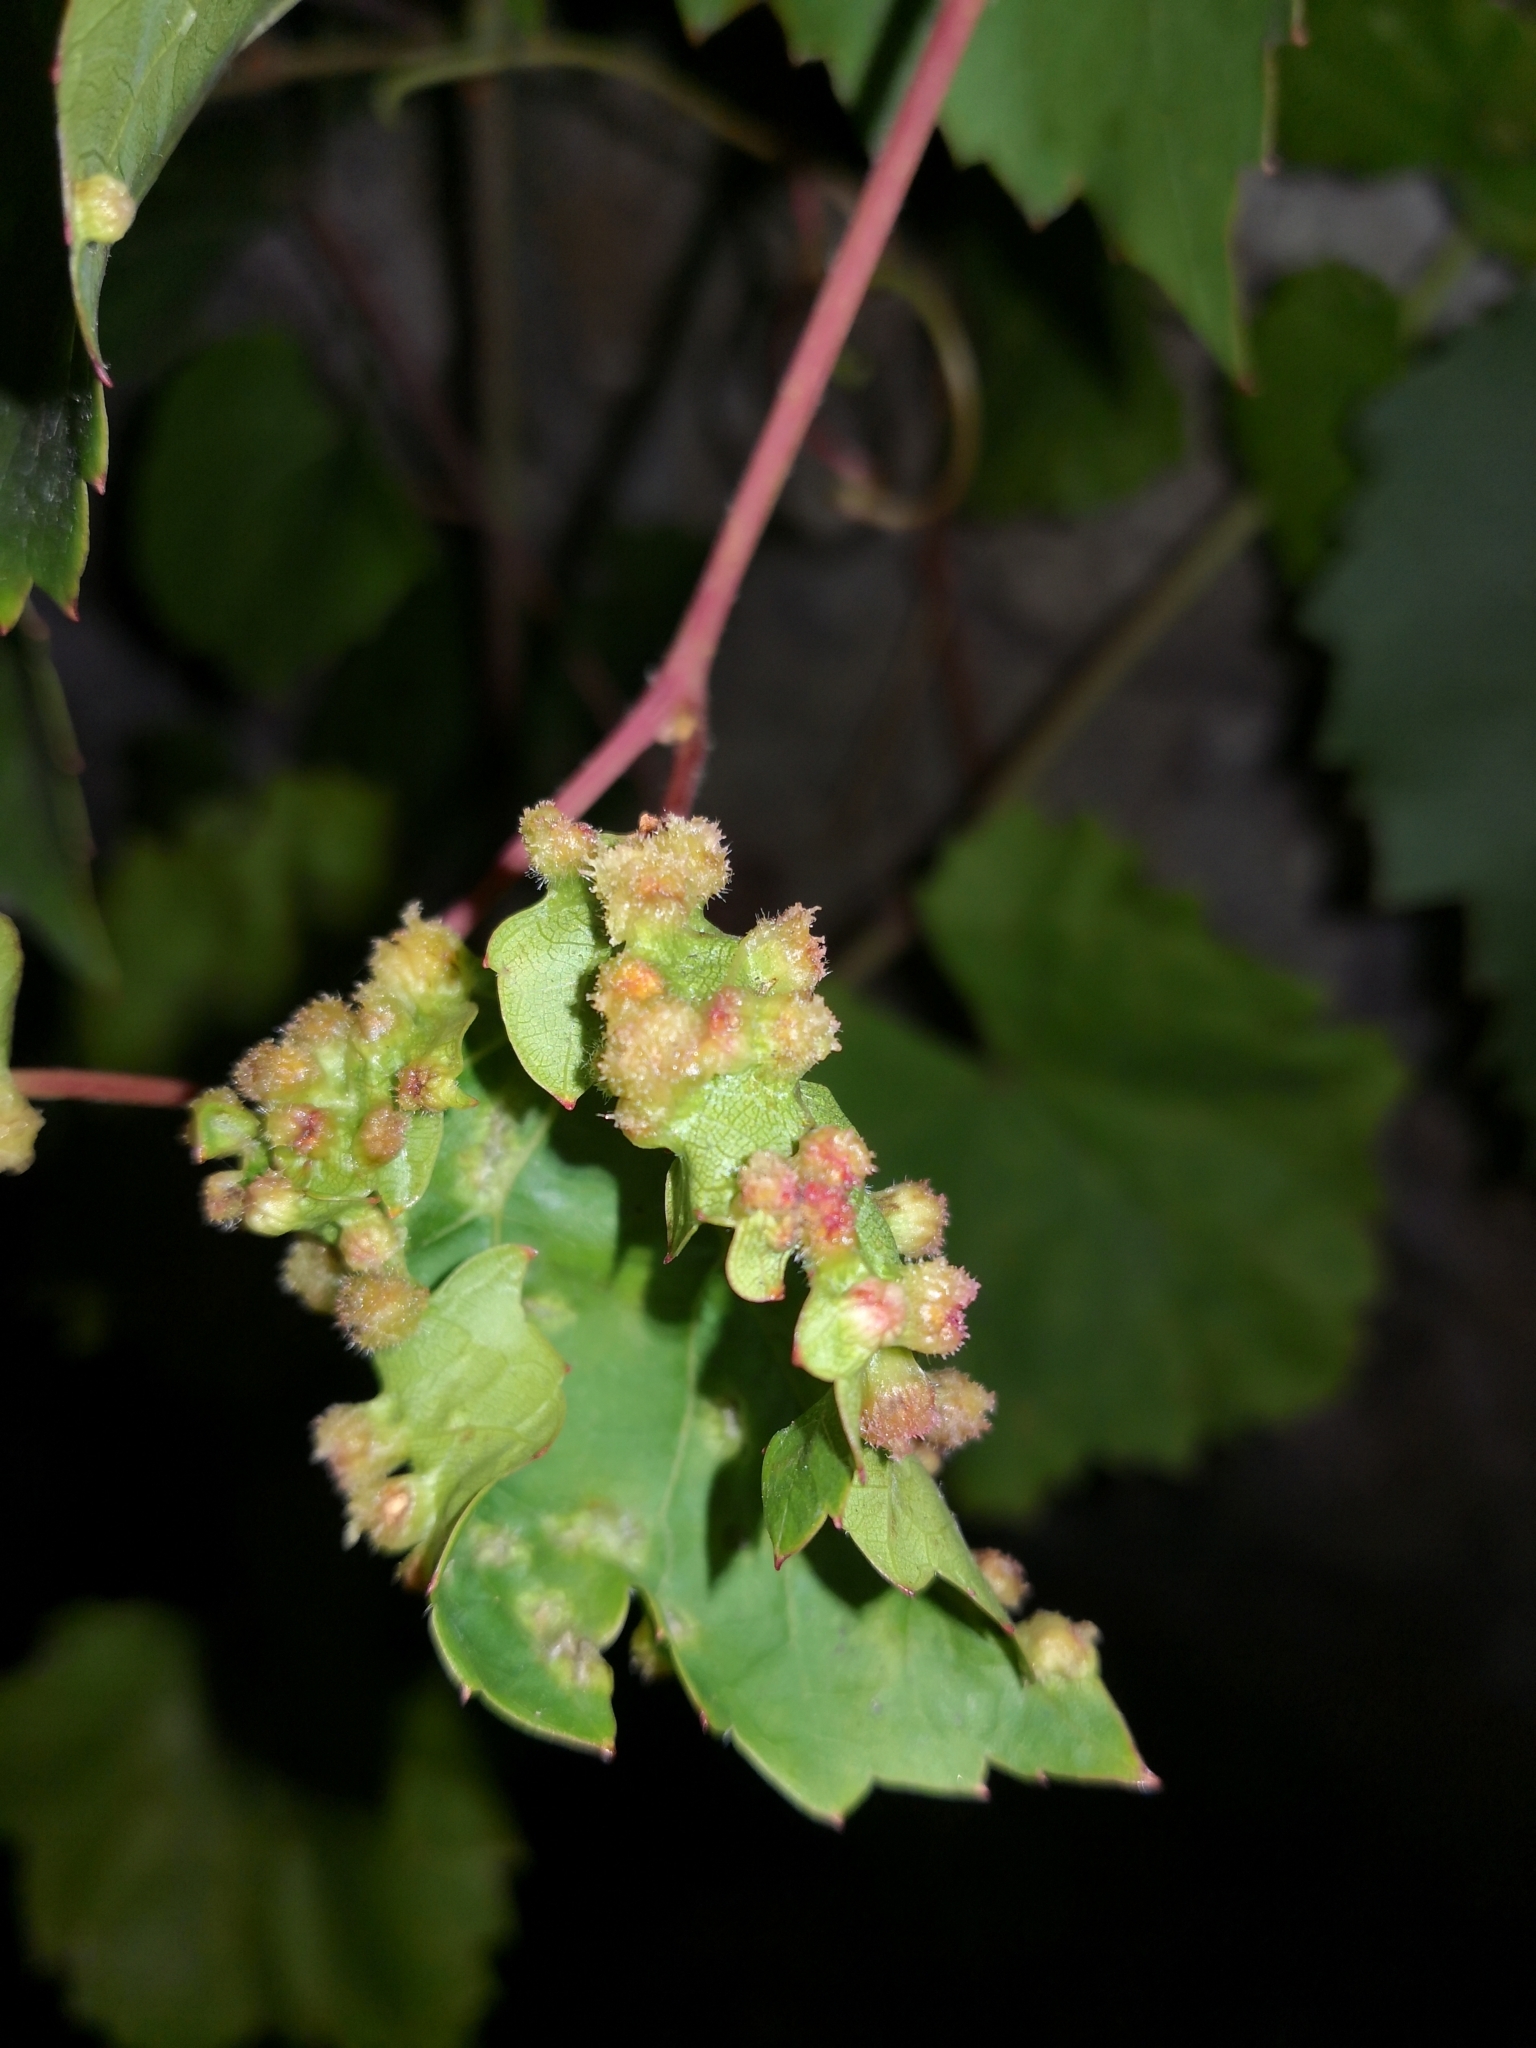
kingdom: Animalia
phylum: Arthropoda
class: Insecta
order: Hemiptera
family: Phylloxeridae
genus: Daktulosphaira
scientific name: Daktulosphaira vitifoliae
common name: Grape phylloxera
